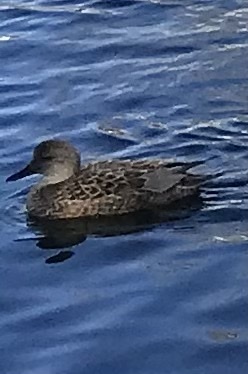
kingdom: Animalia
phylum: Chordata
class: Aves
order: Anseriformes
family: Anatidae
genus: Mareca
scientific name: Mareca strepera
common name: Gadwall
